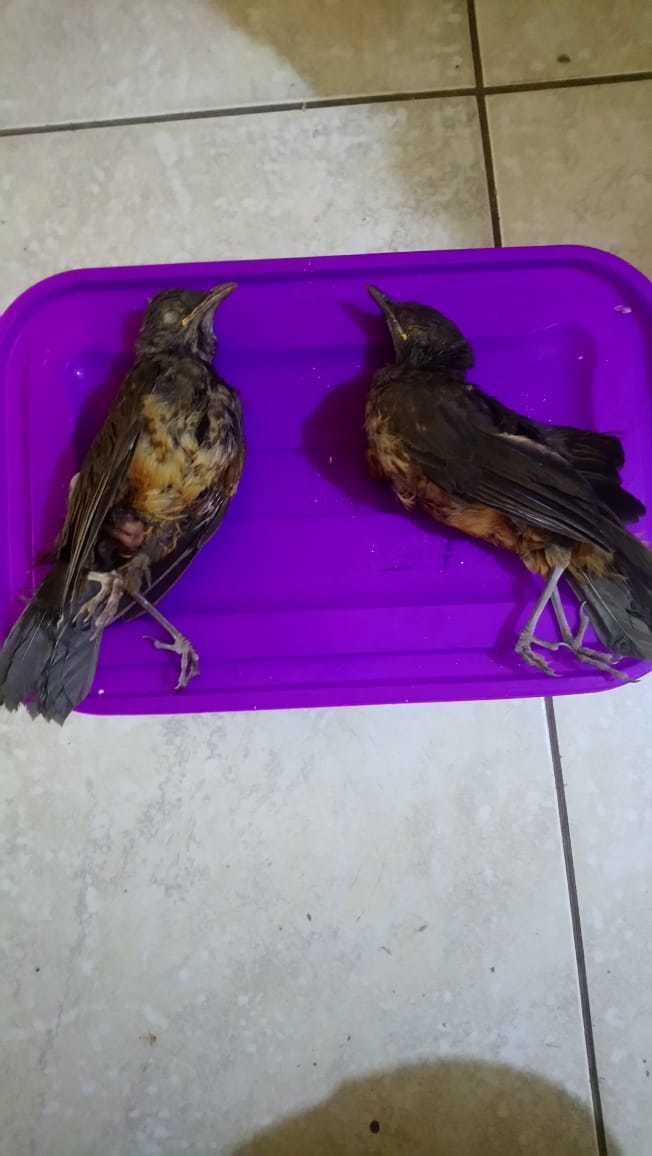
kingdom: Animalia
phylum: Chordata
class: Aves
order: Passeriformes
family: Turdidae
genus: Turdus
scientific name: Turdus rufiventris
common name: Rufous-bellied thrush
